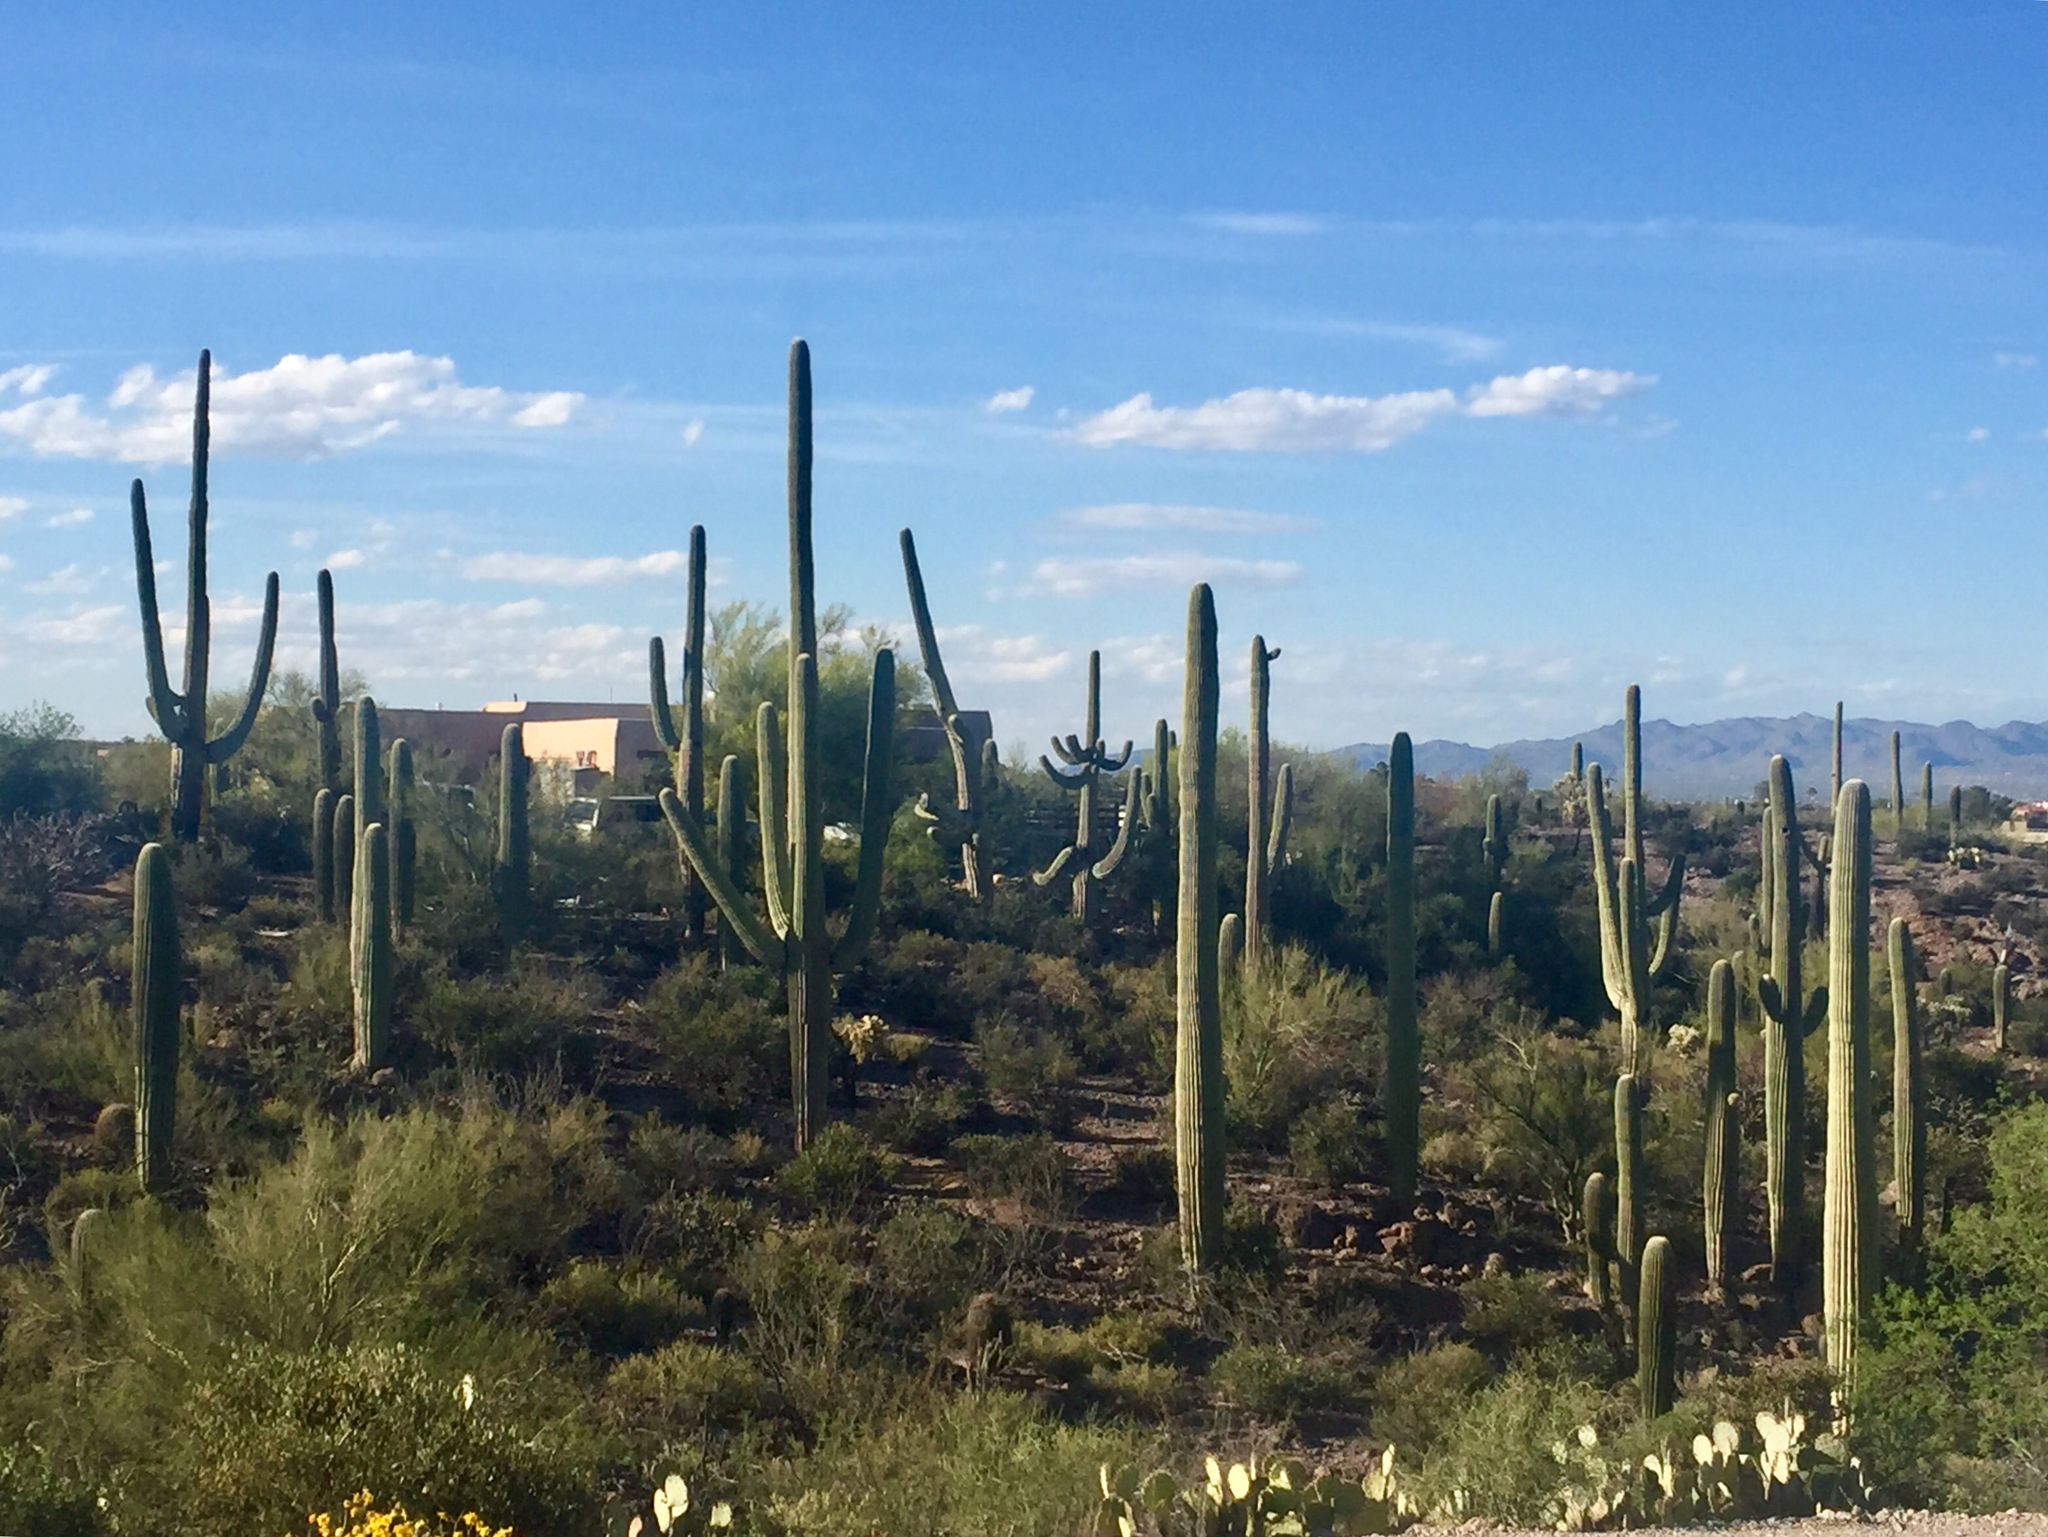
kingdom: Plantae
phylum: Tracheophyta
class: Magnoliopsida
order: Caryophyllales
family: Cactaceae
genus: Carnegiea
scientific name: Carnegiea gigantea
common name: Saguaro
